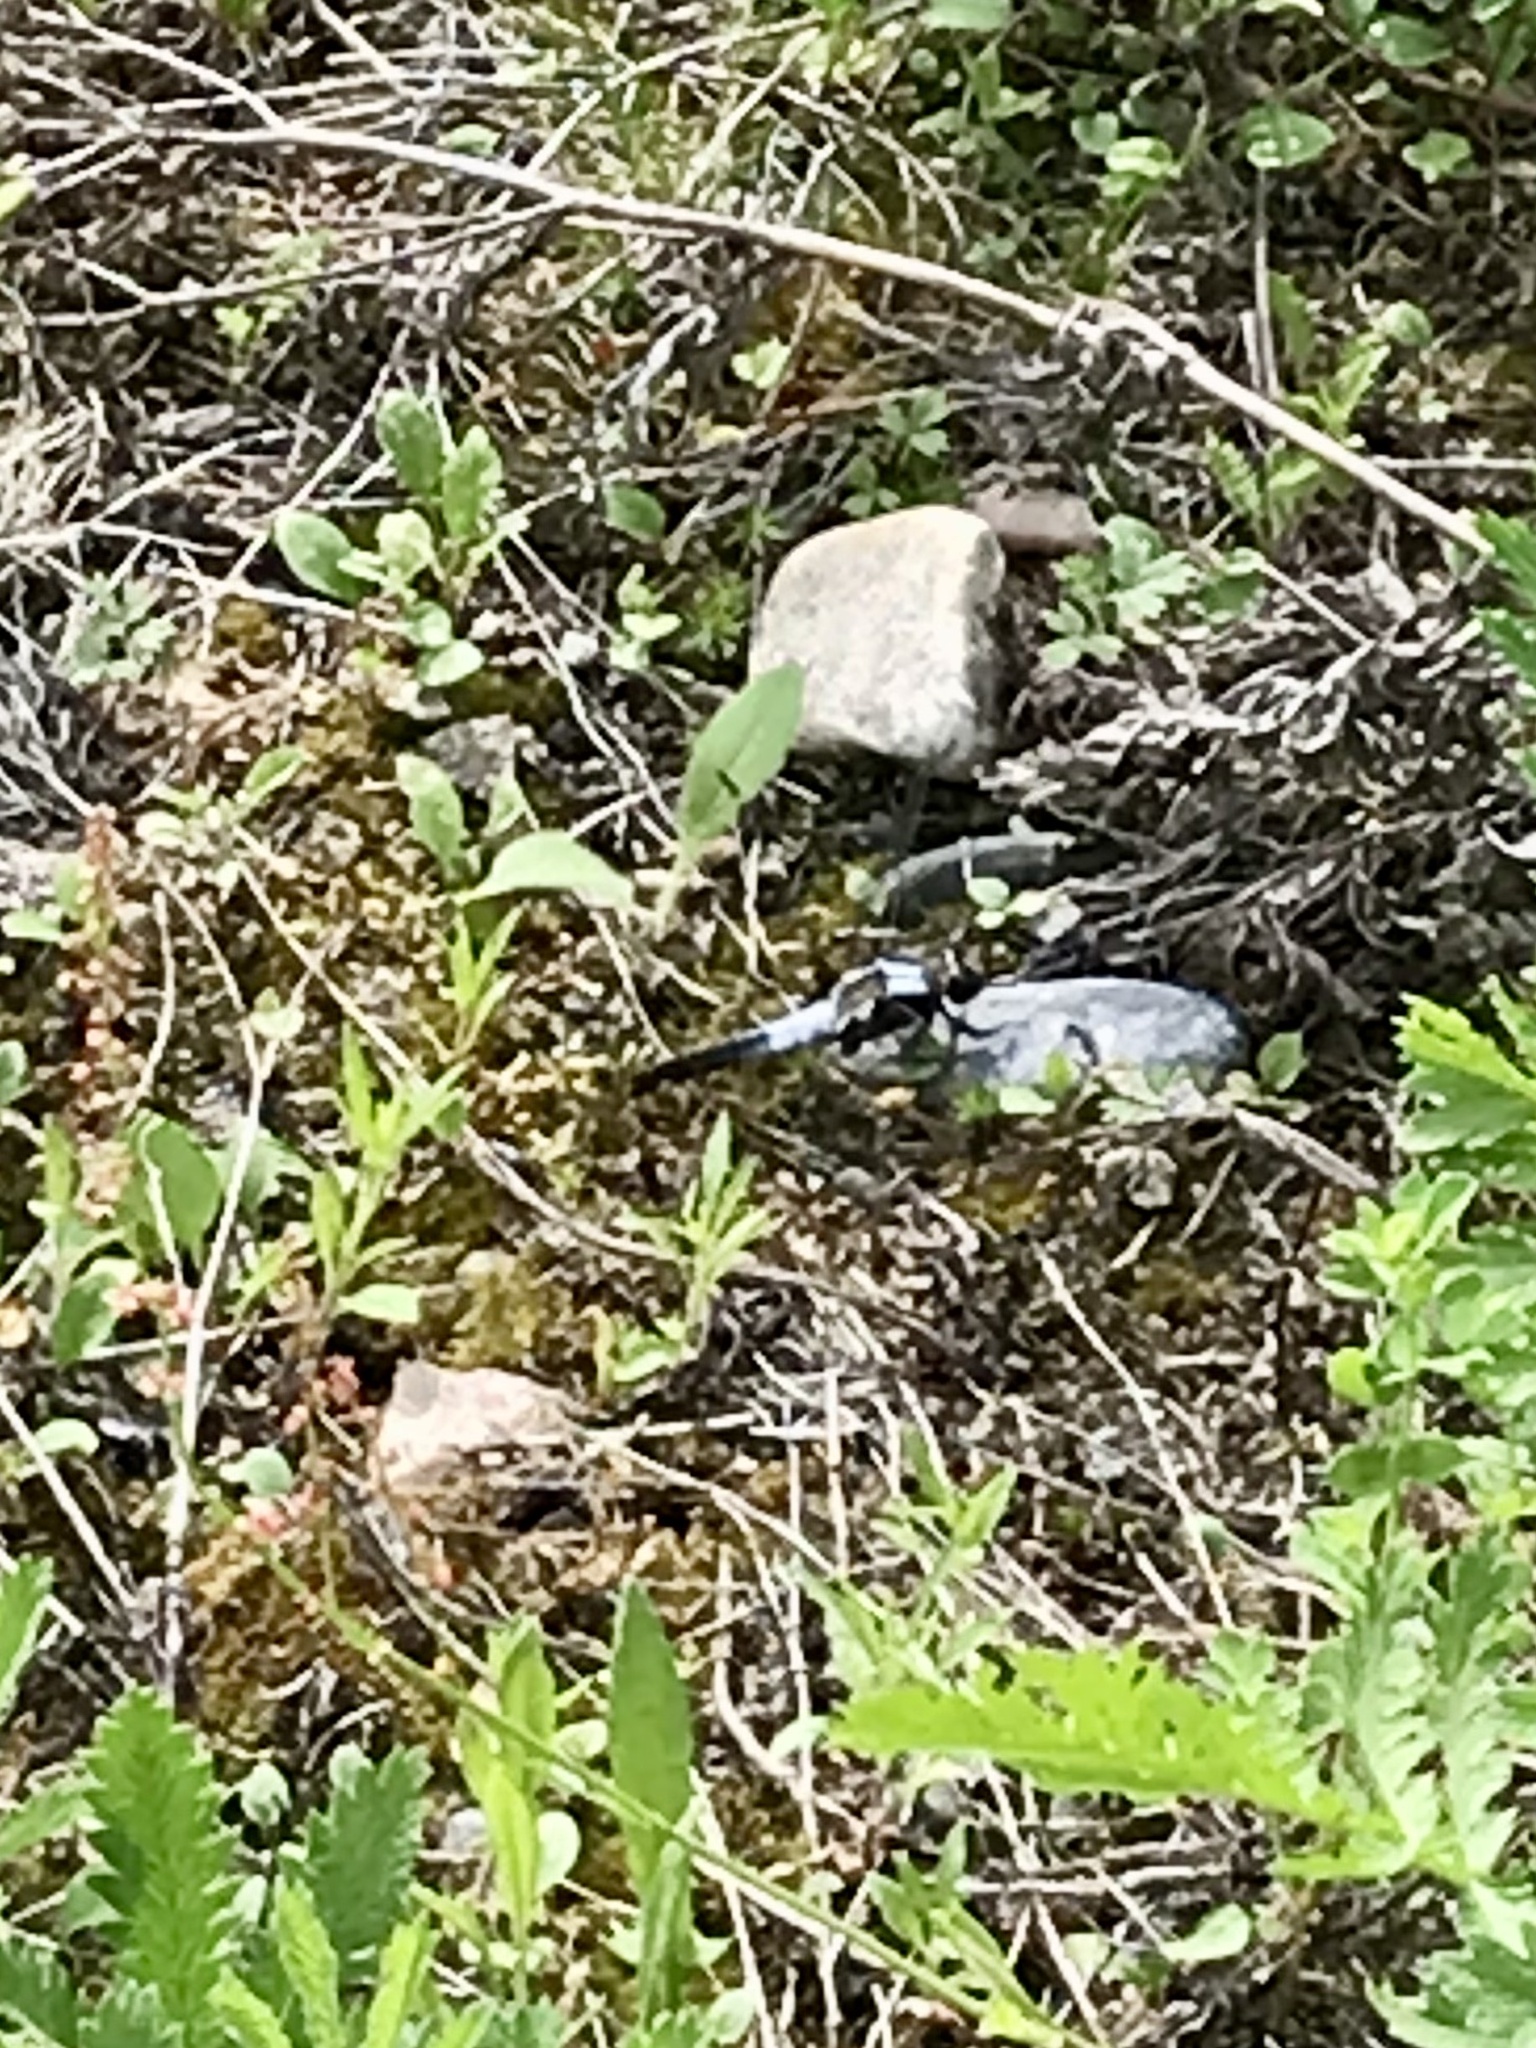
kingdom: Animalia
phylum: Arthropoda
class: Insecta
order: Odonata
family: Libellulidae
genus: Ladona
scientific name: Ladona julia
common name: Chalk-fronted corporal
